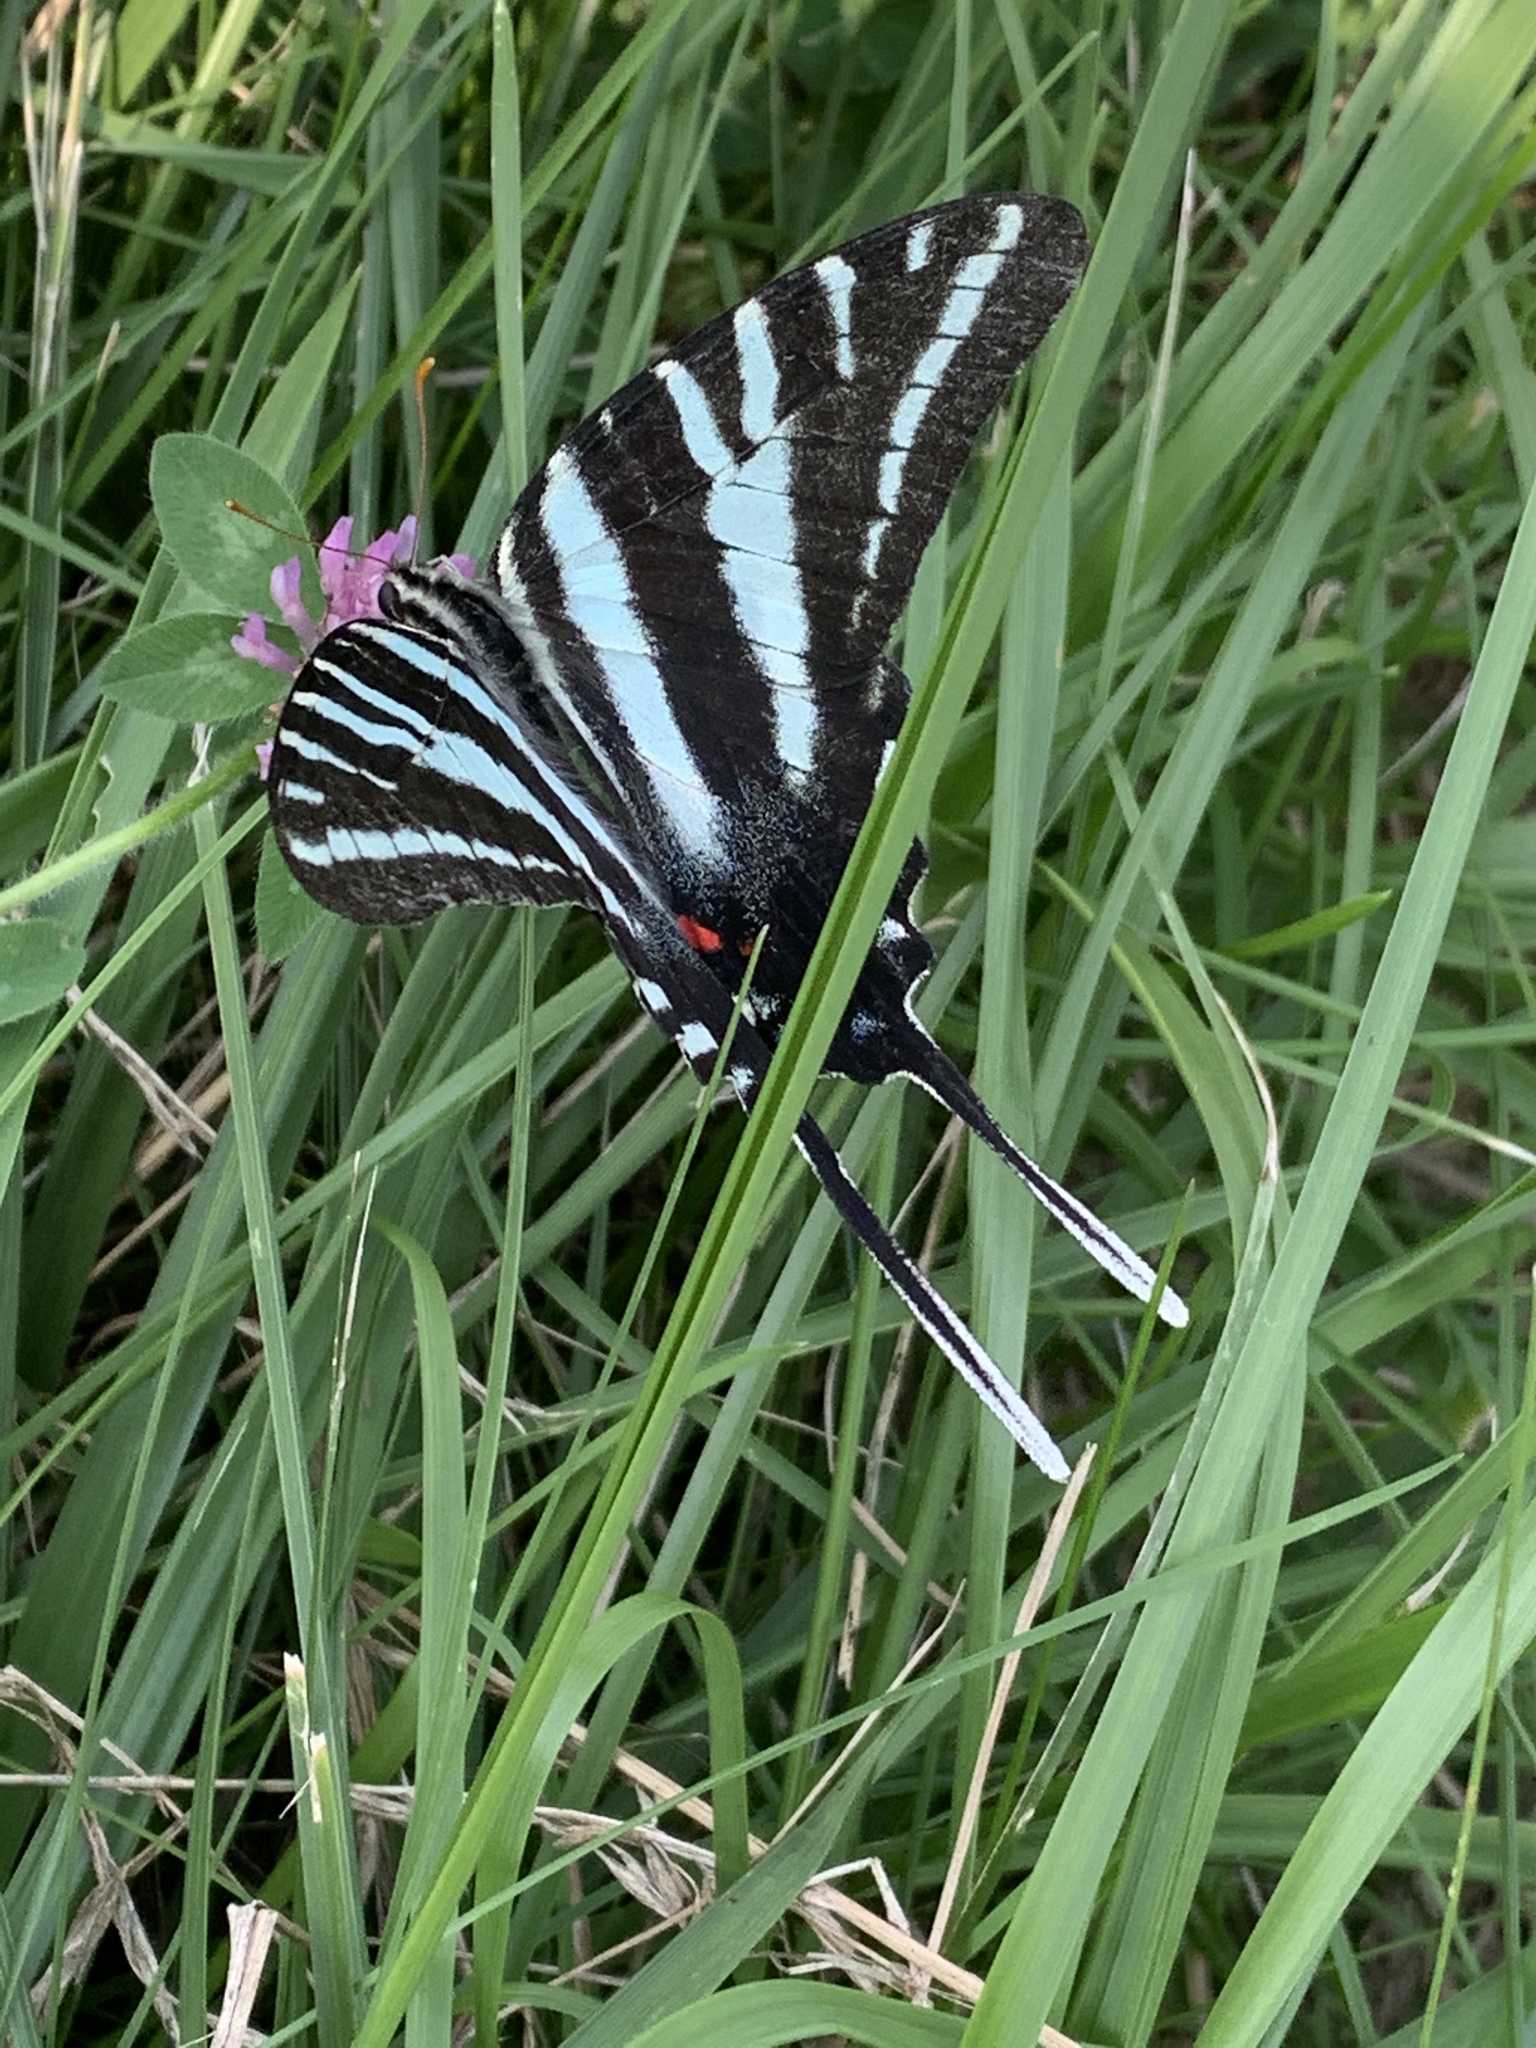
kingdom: Animalia
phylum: Arthropoda
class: Insecta
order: Lepidoptera
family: Papilionidae
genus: Protographium
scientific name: Protographium marcellus
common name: Zebra swallowtail
